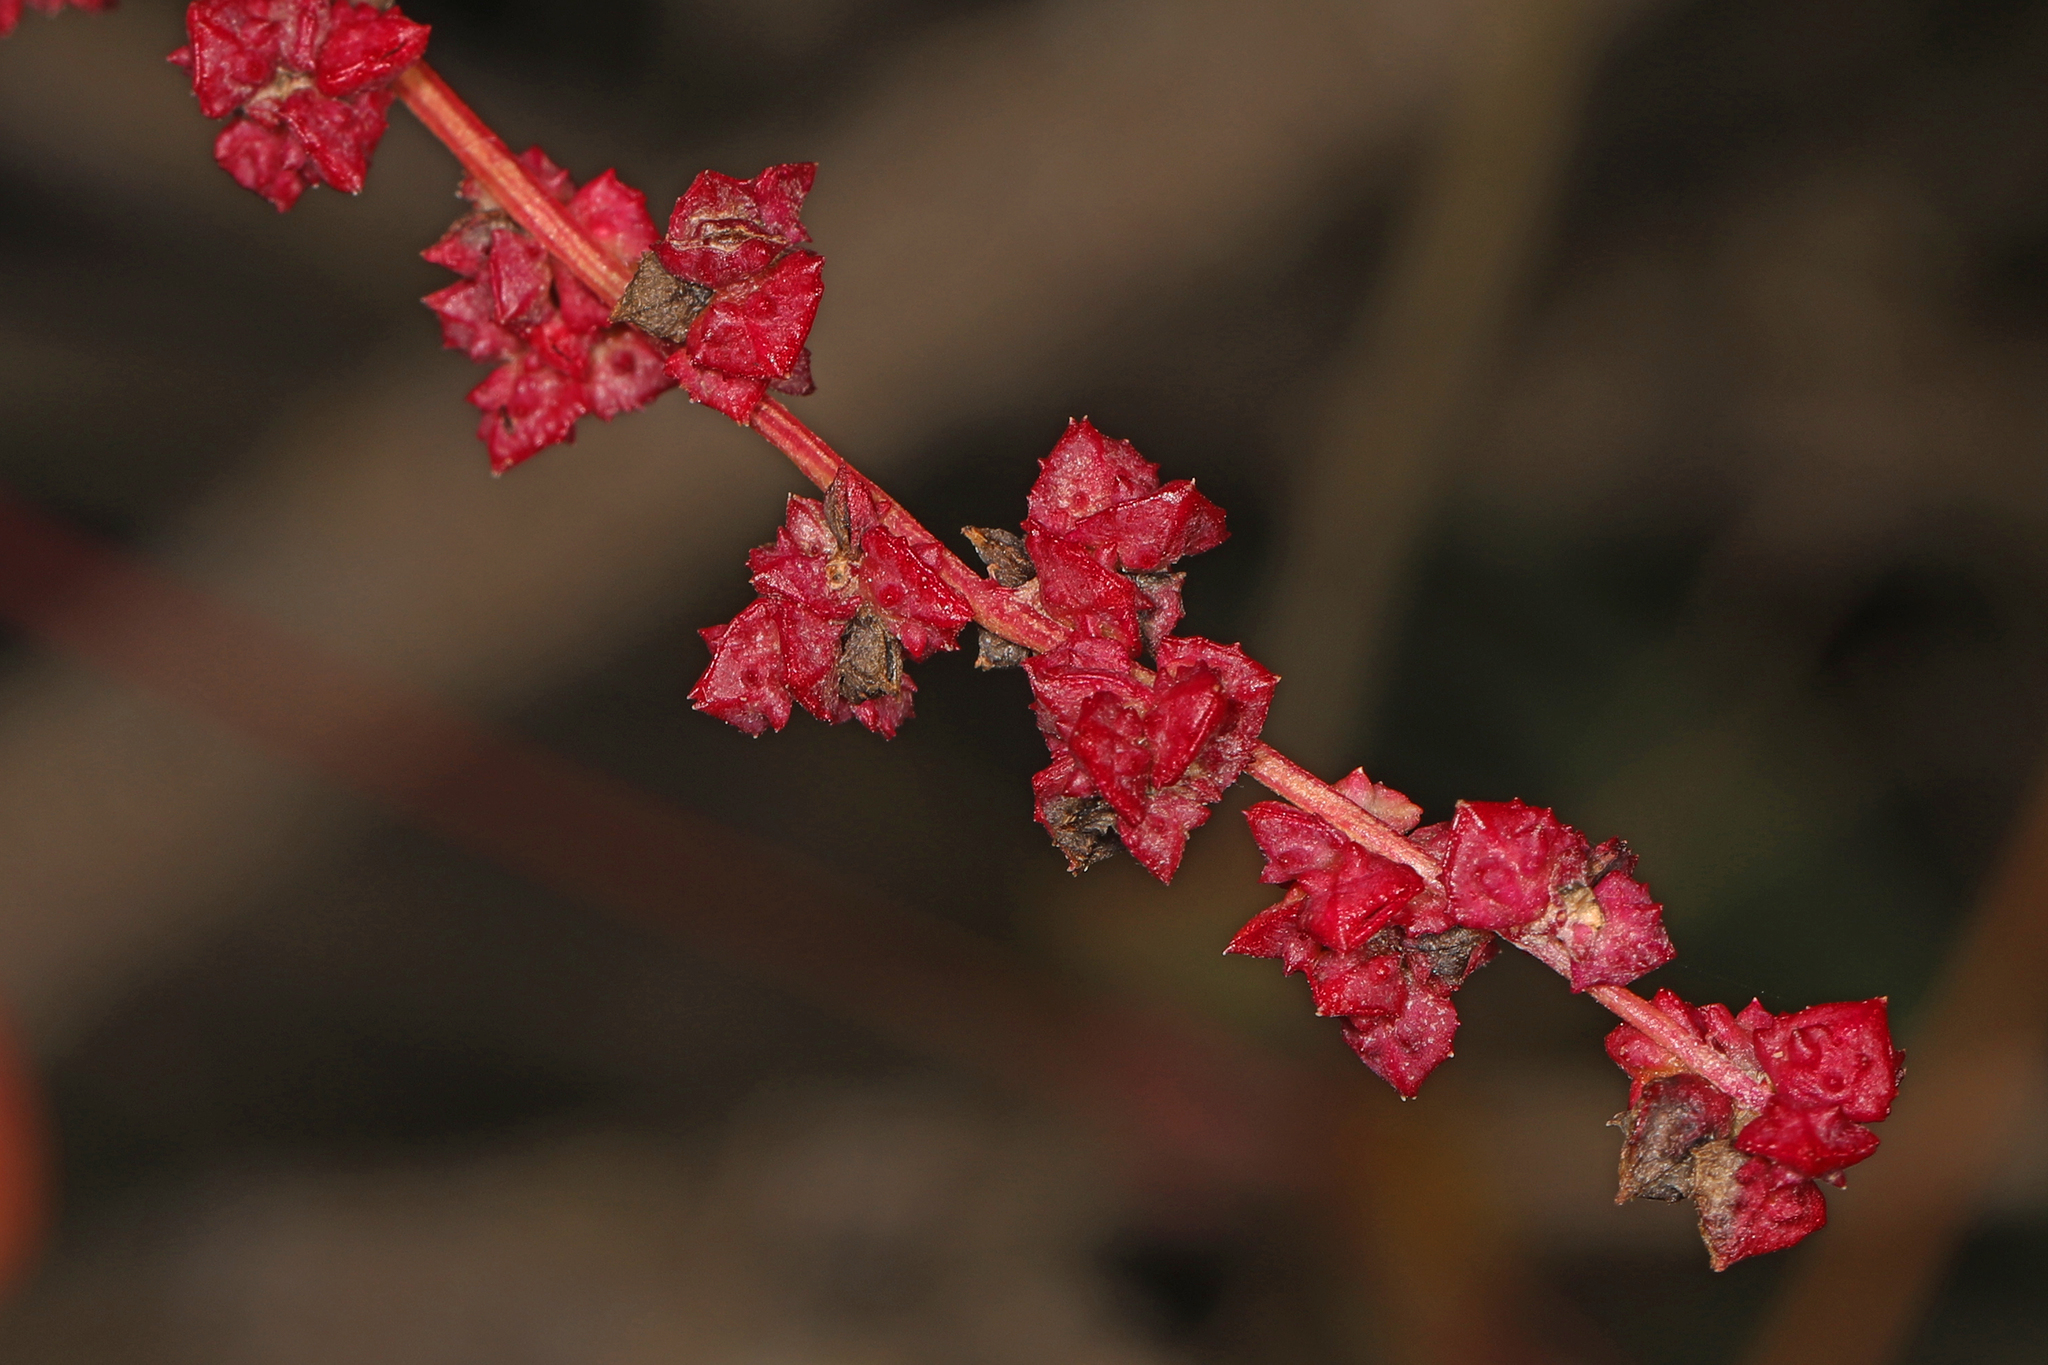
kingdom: Plantae
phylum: Tracheophyta
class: Magnoliopsida
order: Caryophyllales
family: Amaranthaceae
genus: Atriplex
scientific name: Atriplex prostrata
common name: Spear-leaved orache
